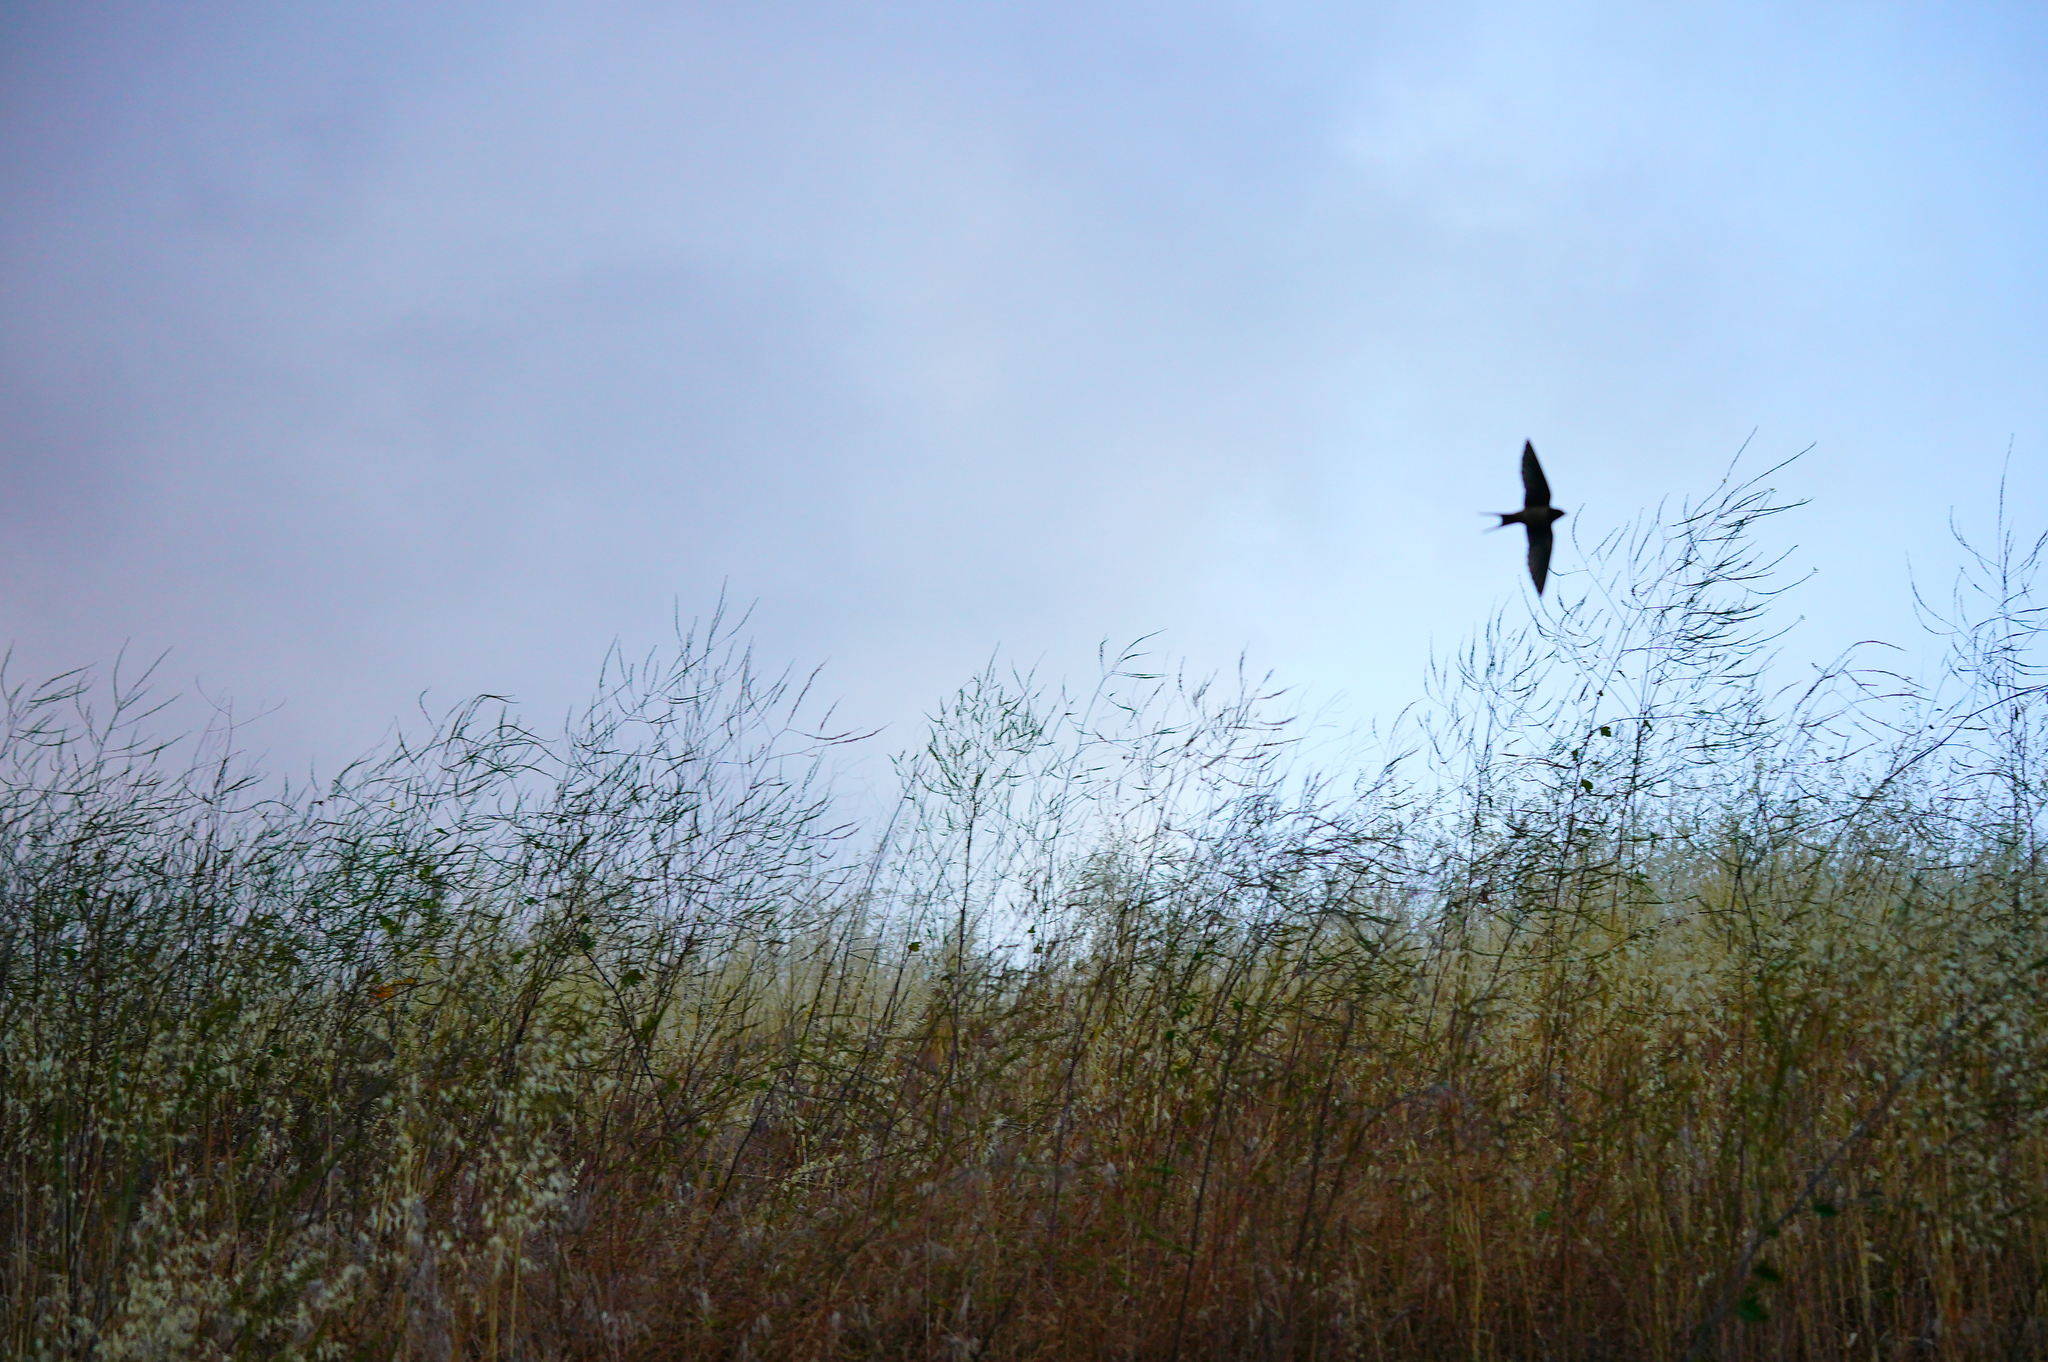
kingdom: Animalia
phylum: Chordata
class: Aves
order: Passeriformes
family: Hirundinidae
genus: Hirundo
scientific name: Hirundo rustica
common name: Barn swallow
